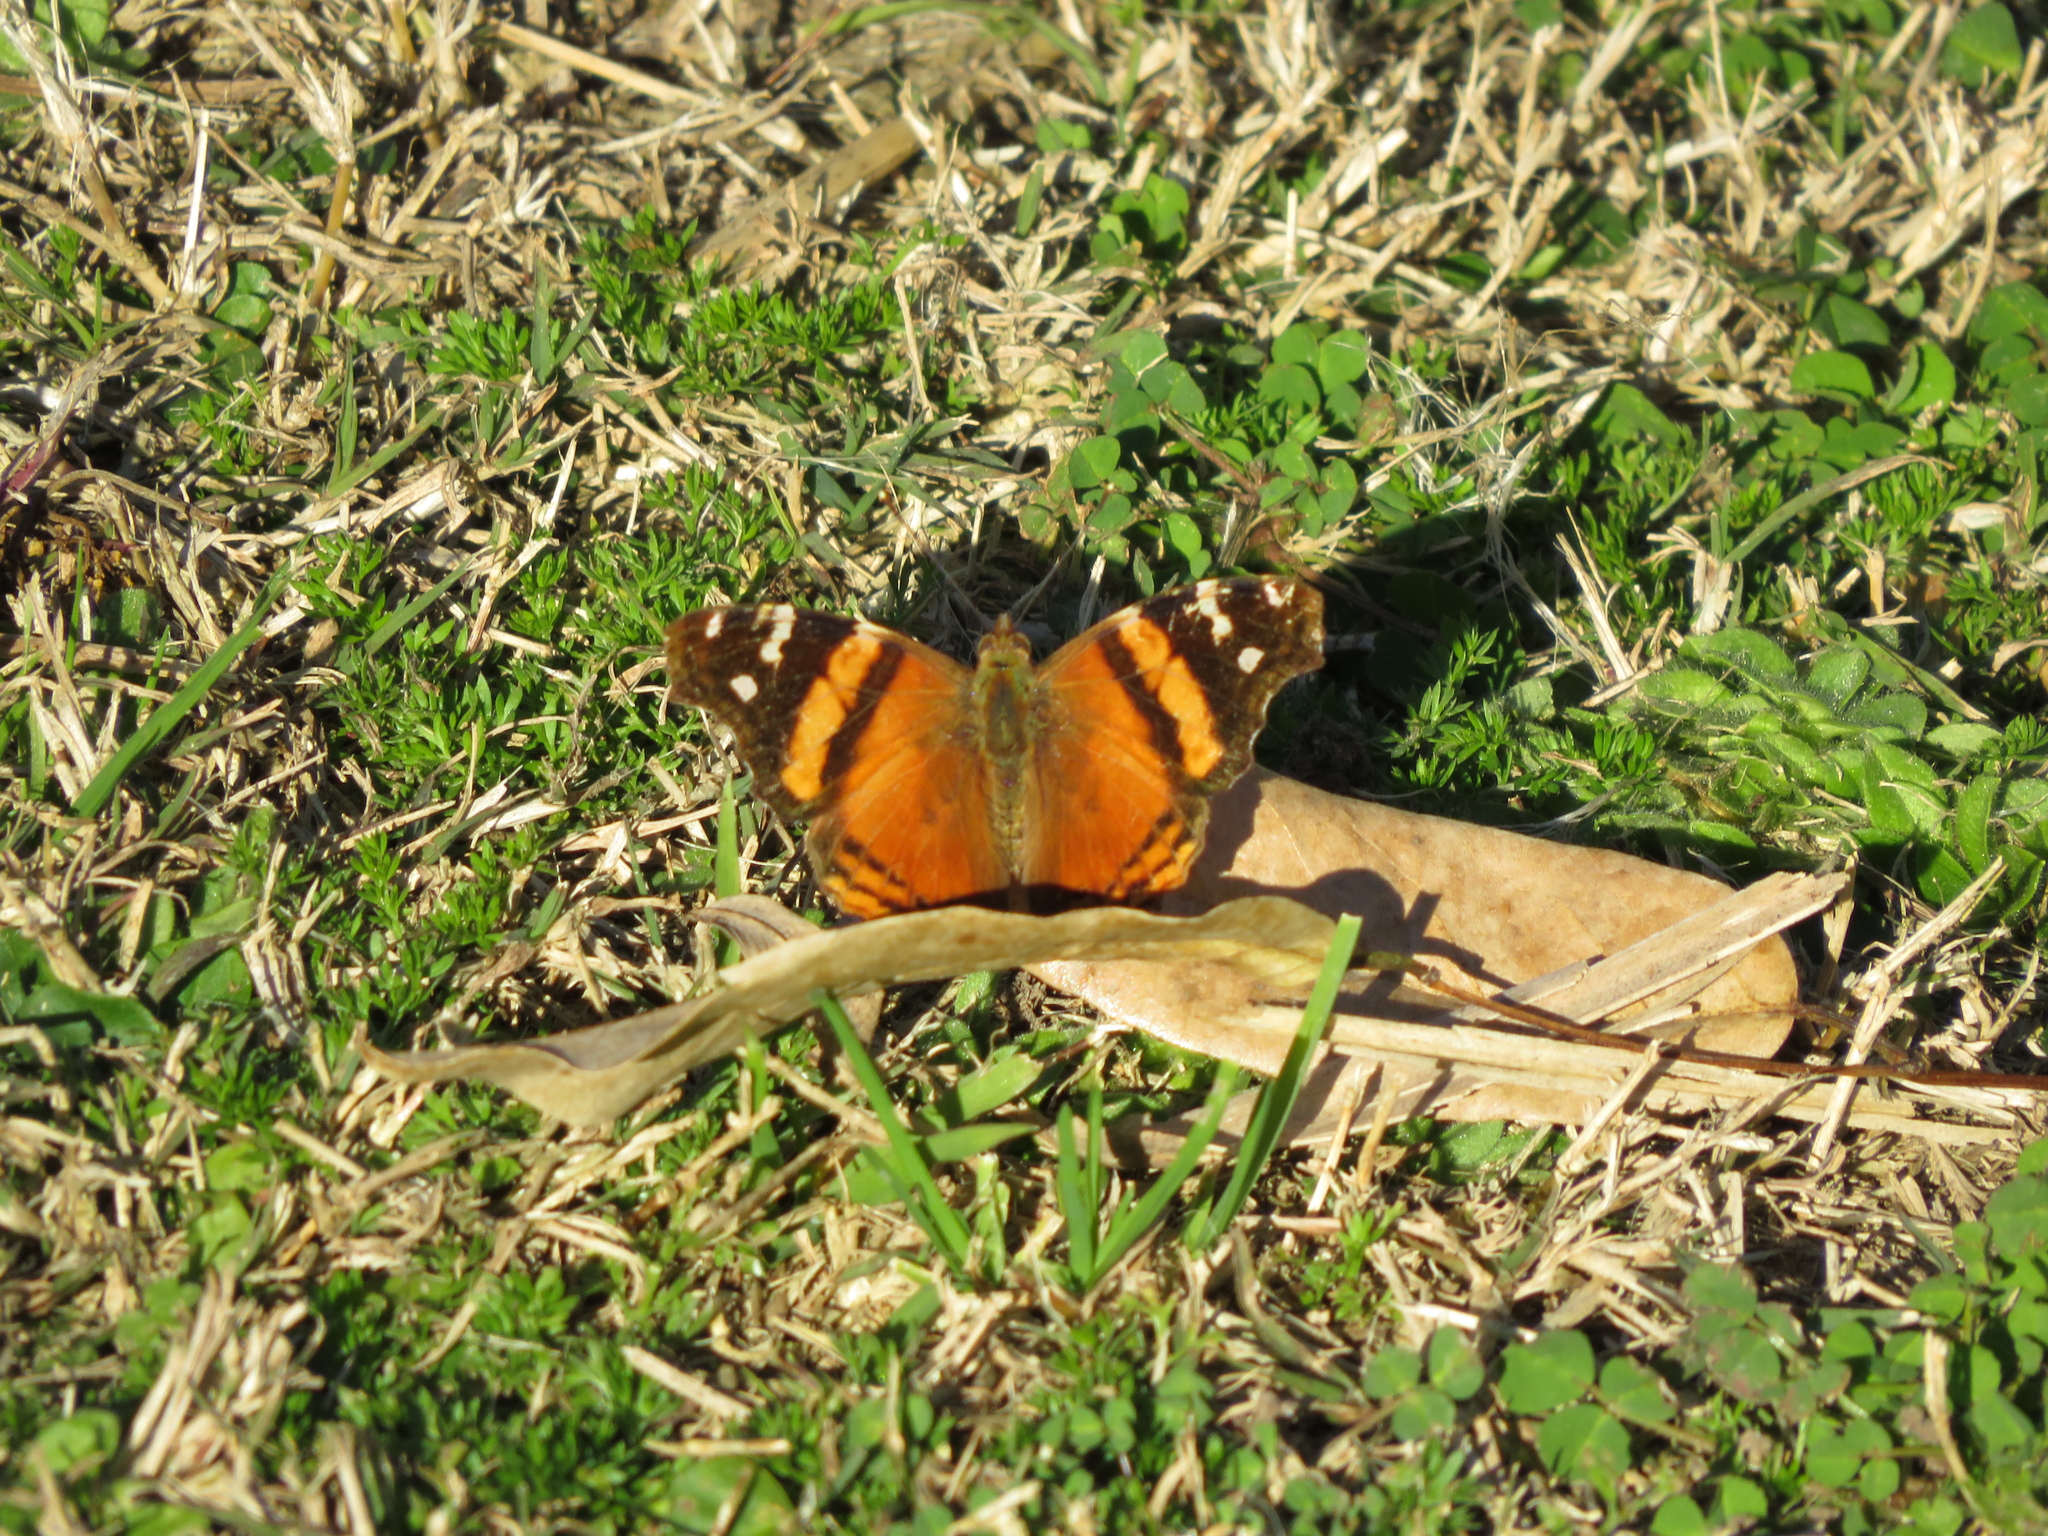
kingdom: Animalia
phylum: Arthropoda
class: Insecta
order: Lepidoptera
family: Nymphalidae
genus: Hypanartia
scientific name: Hypanartia bella
